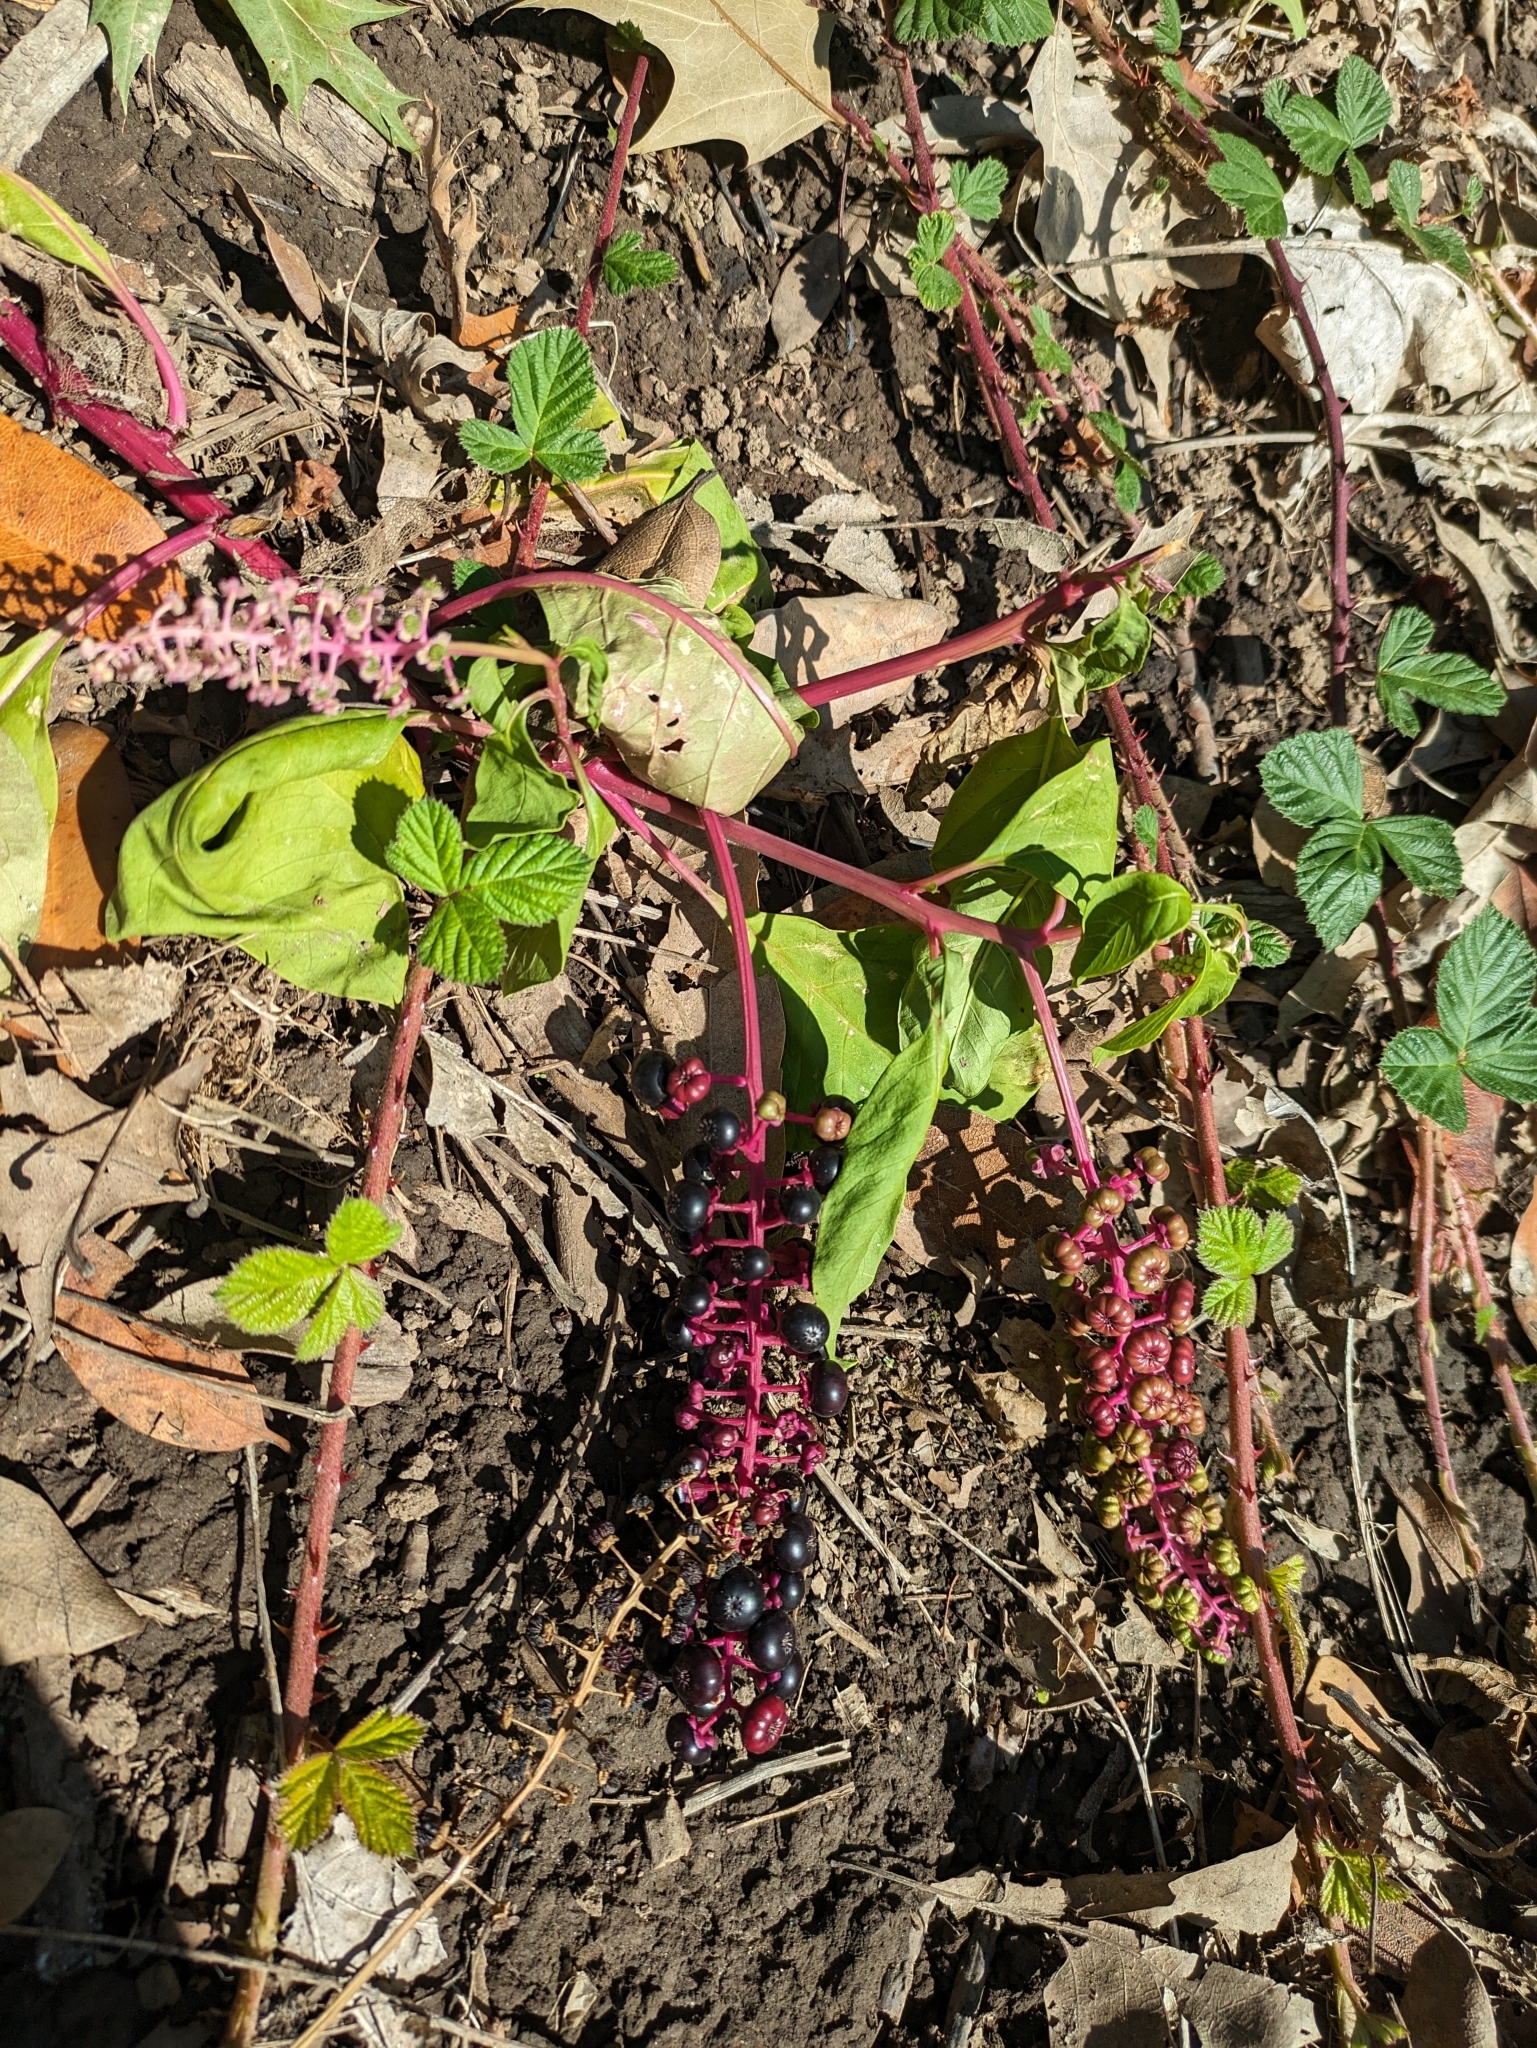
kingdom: Plantae
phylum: Tracheophyta
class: Magnoliopsida
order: Caryophyllales
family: Phytolaccaceae
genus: Phytolacca
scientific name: Phytolacca americana
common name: American pokeweed
